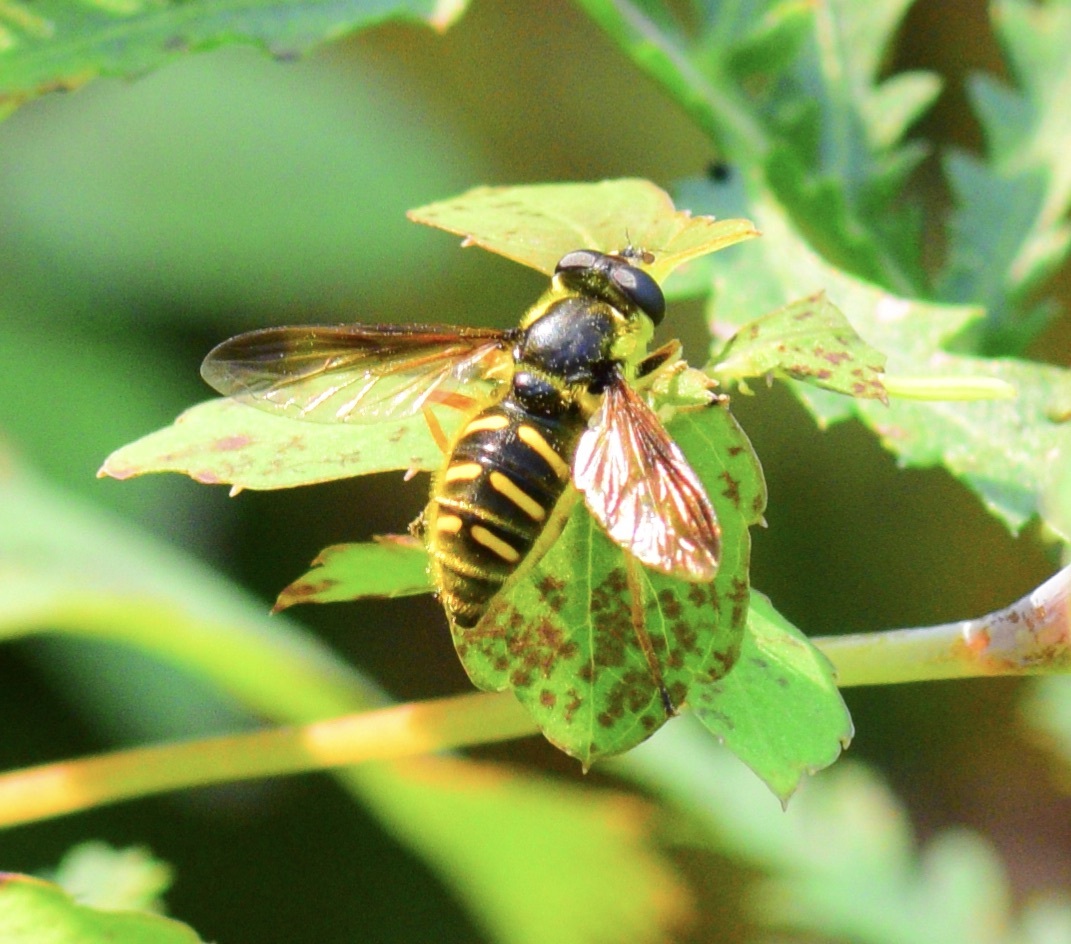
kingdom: Animalia
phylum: Arthropoda
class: Insecta
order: Diptera
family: Syrphidae
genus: Sericomyia
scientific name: Sericomyia chrysotoxoides
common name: Oblique-banded pond fly
